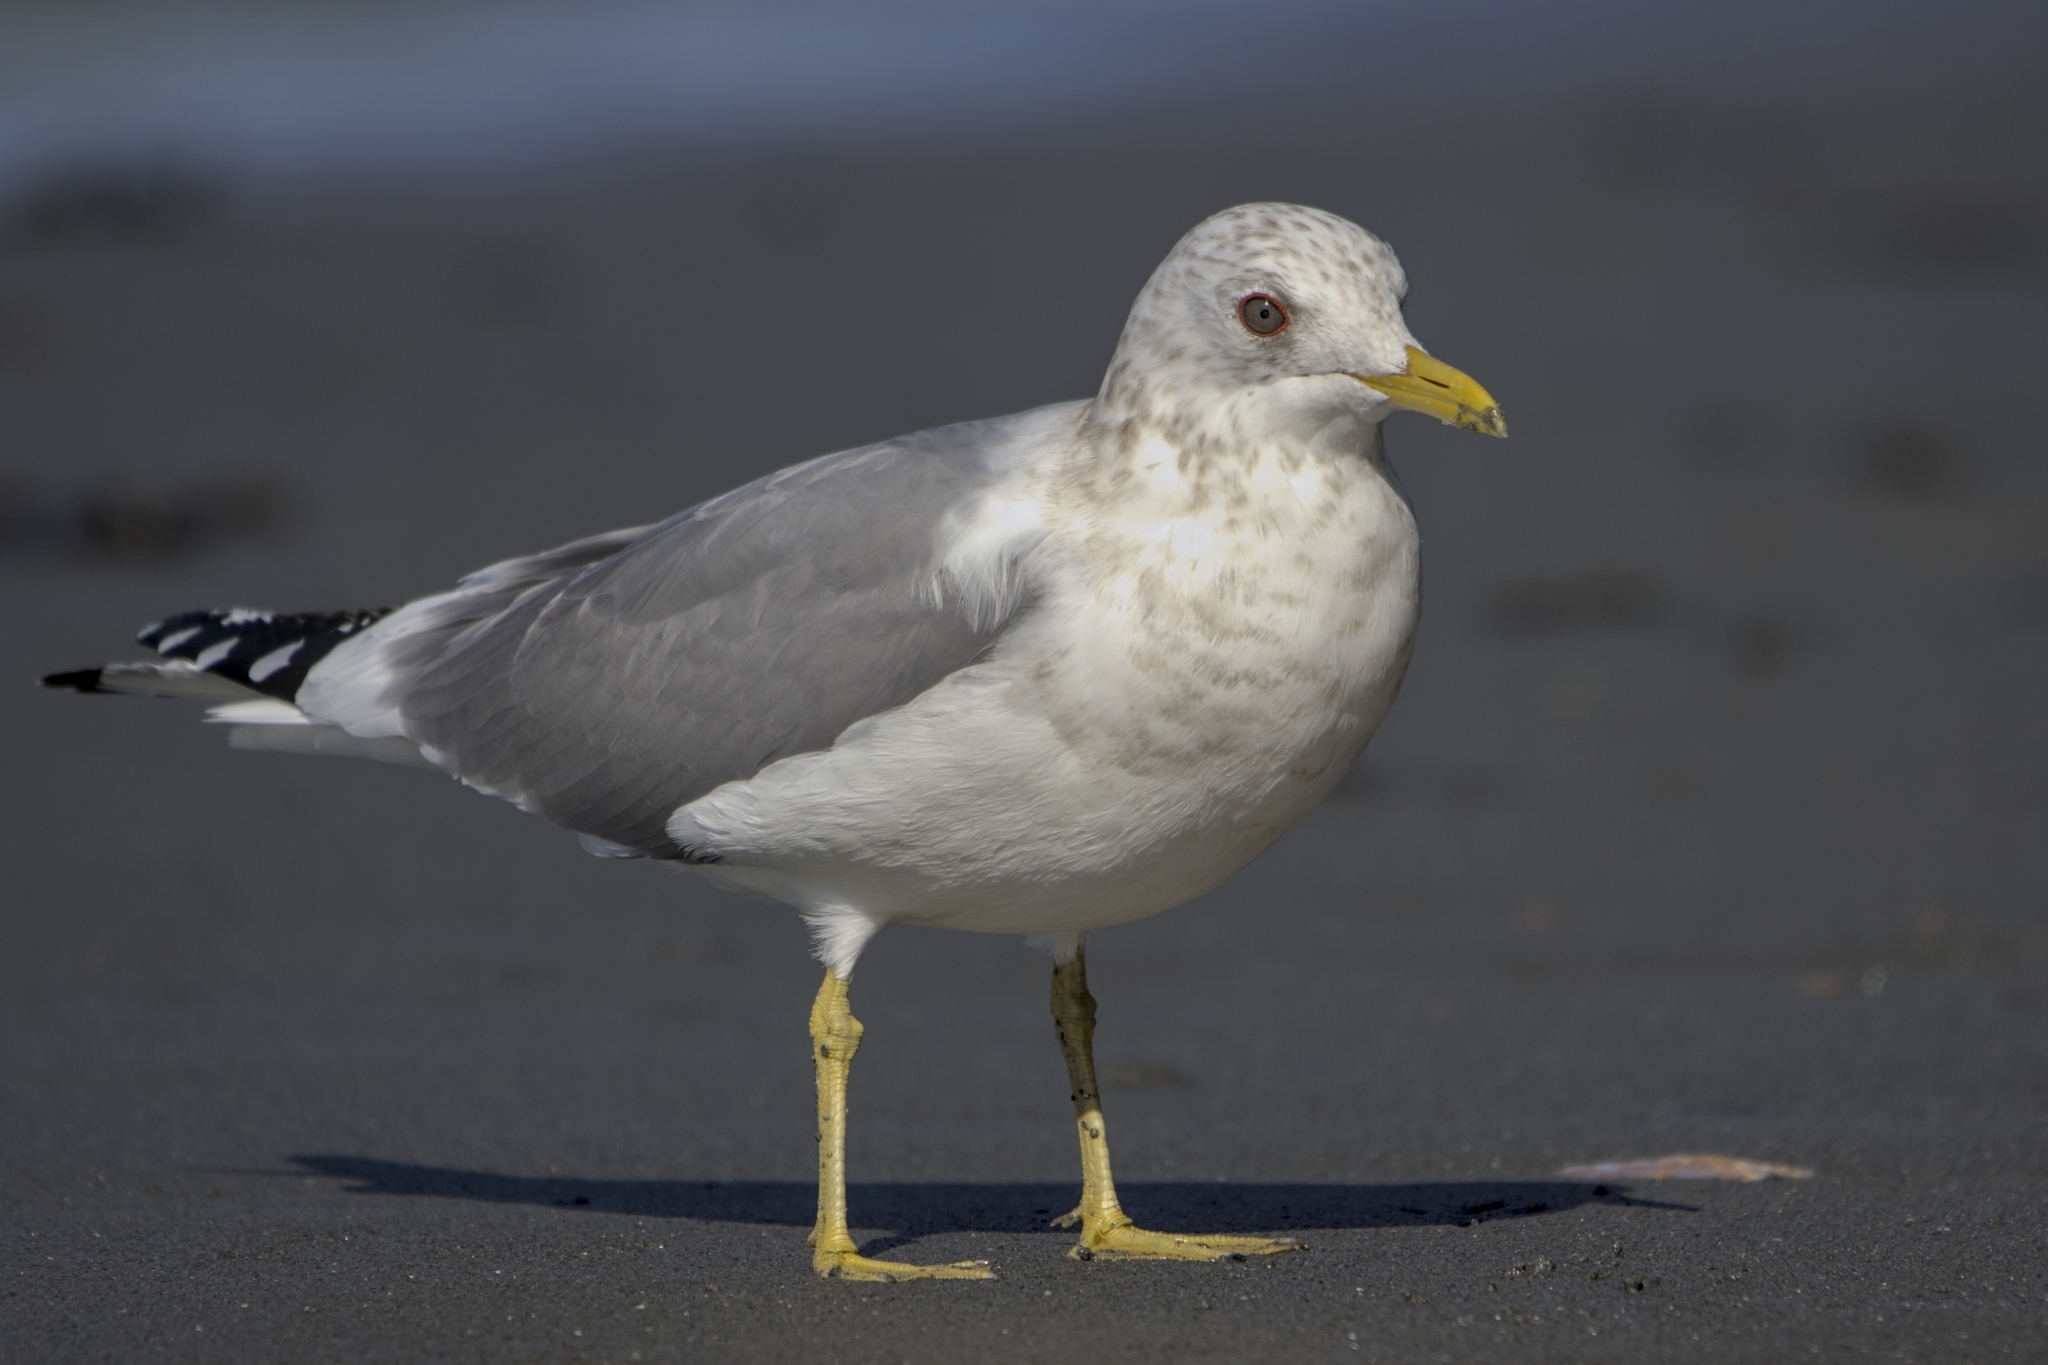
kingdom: Animalia
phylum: Chordata
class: Aves
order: Charadriiformes
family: Laridae
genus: Larus
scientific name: Larus brachyrhynchus
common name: Short-billed gull
